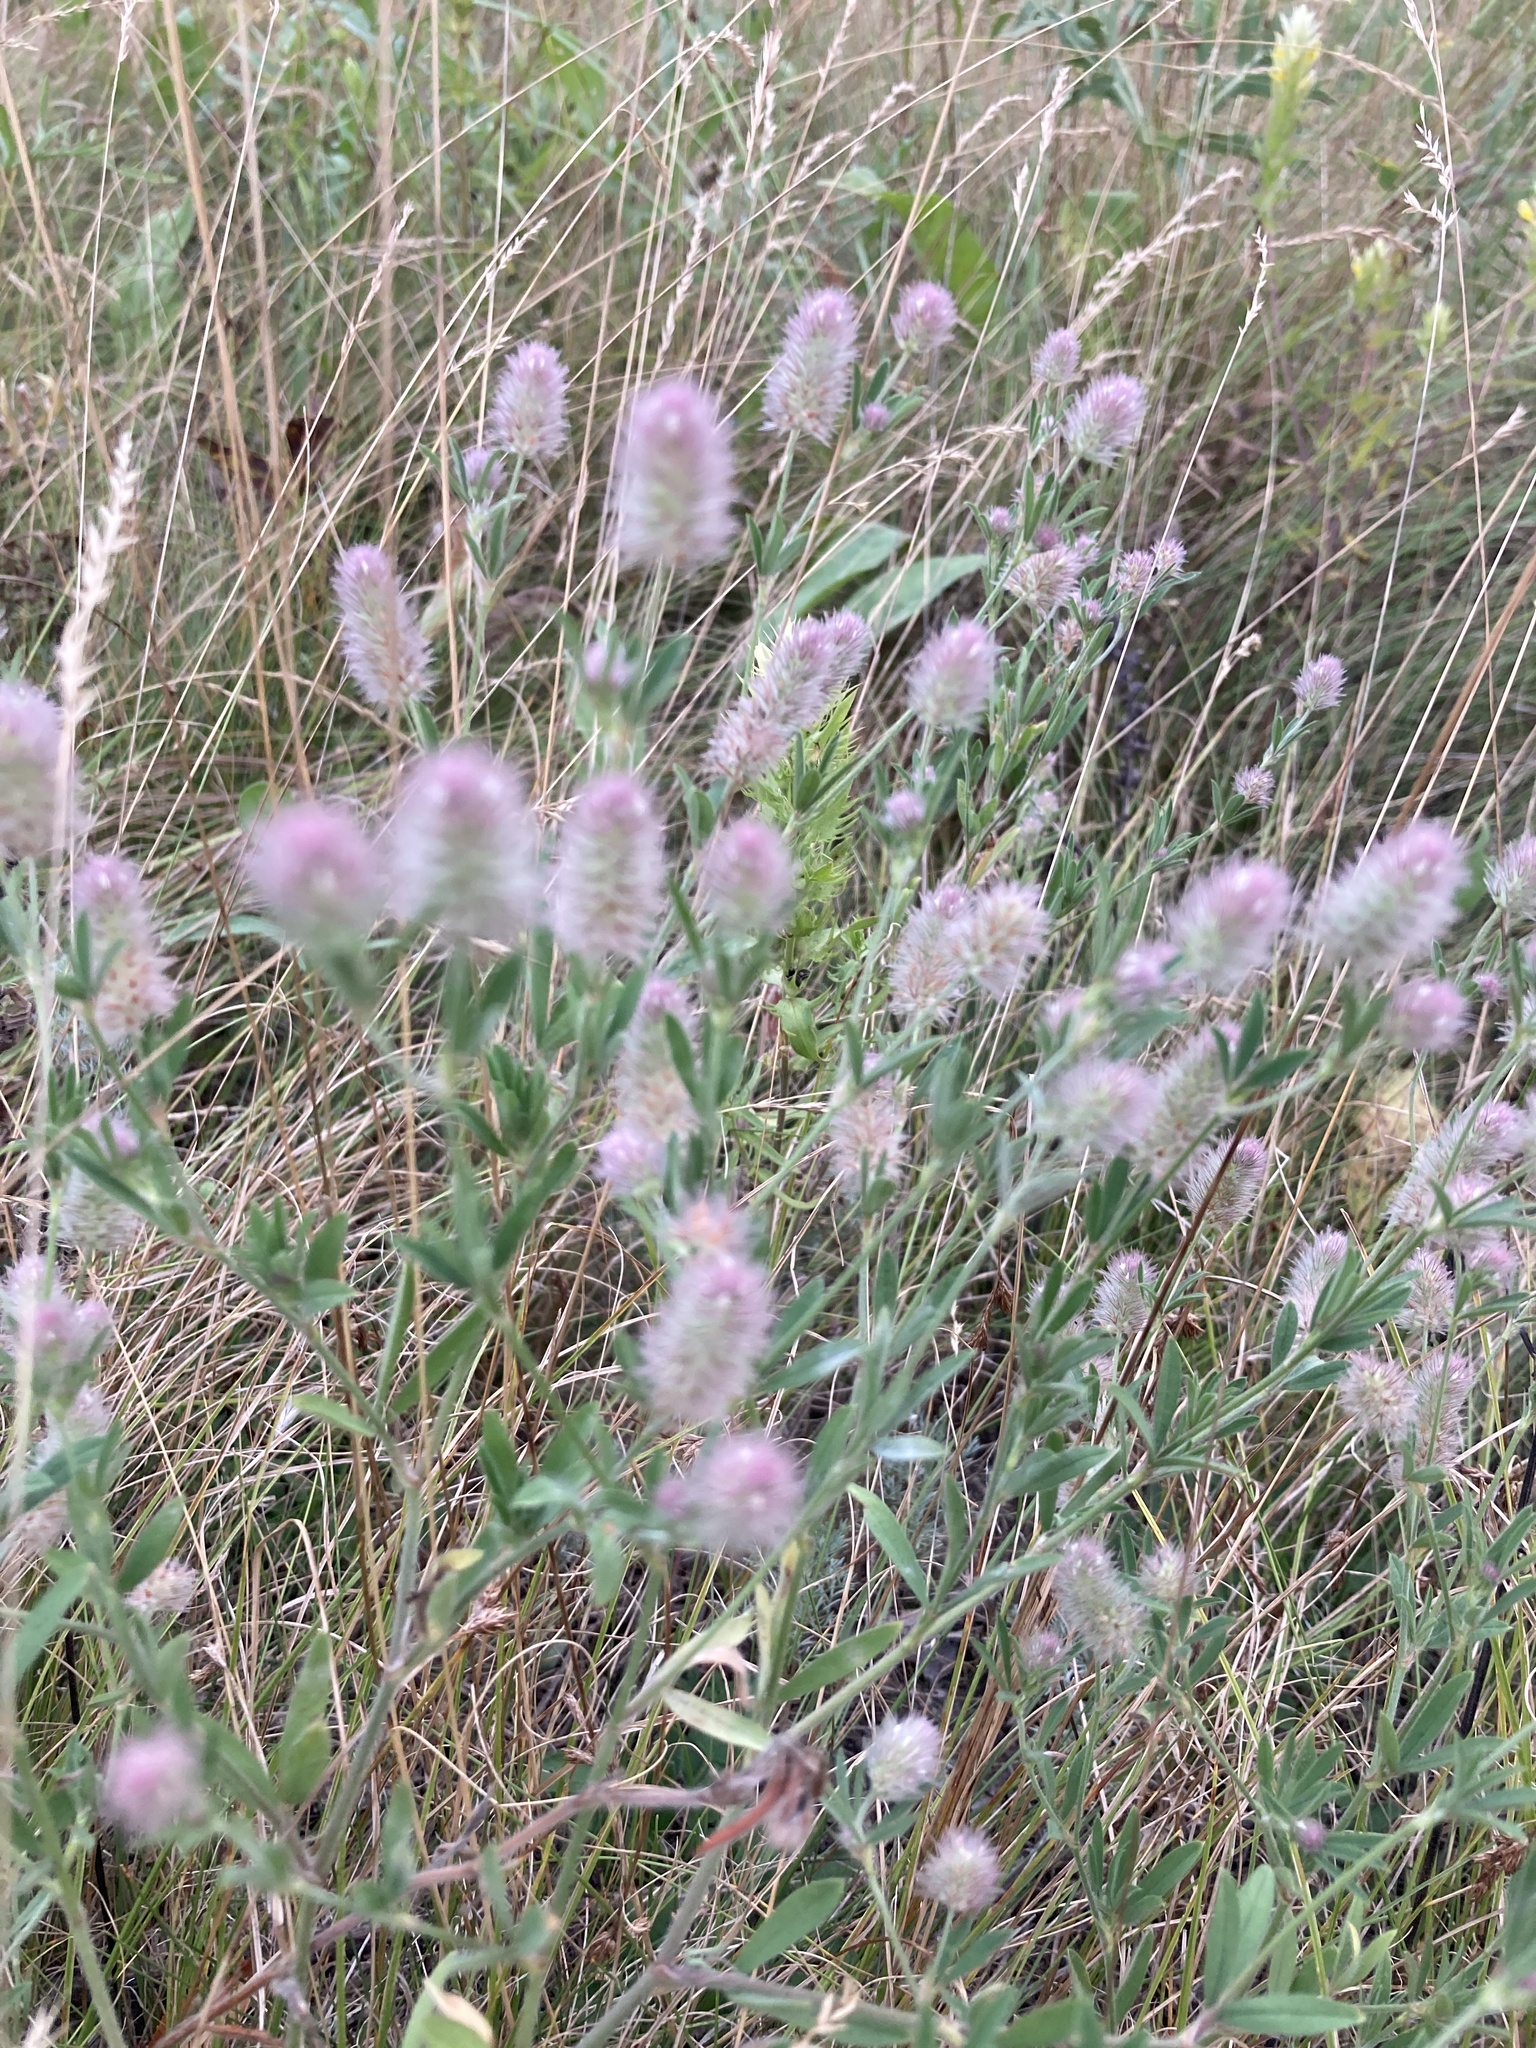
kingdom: Plantae
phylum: Tracheophyta
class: Magnoliopsida
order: Fabales
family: Fabaceae
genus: Trifolium
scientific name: Trifolium arvense
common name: Hare's-foot clover
